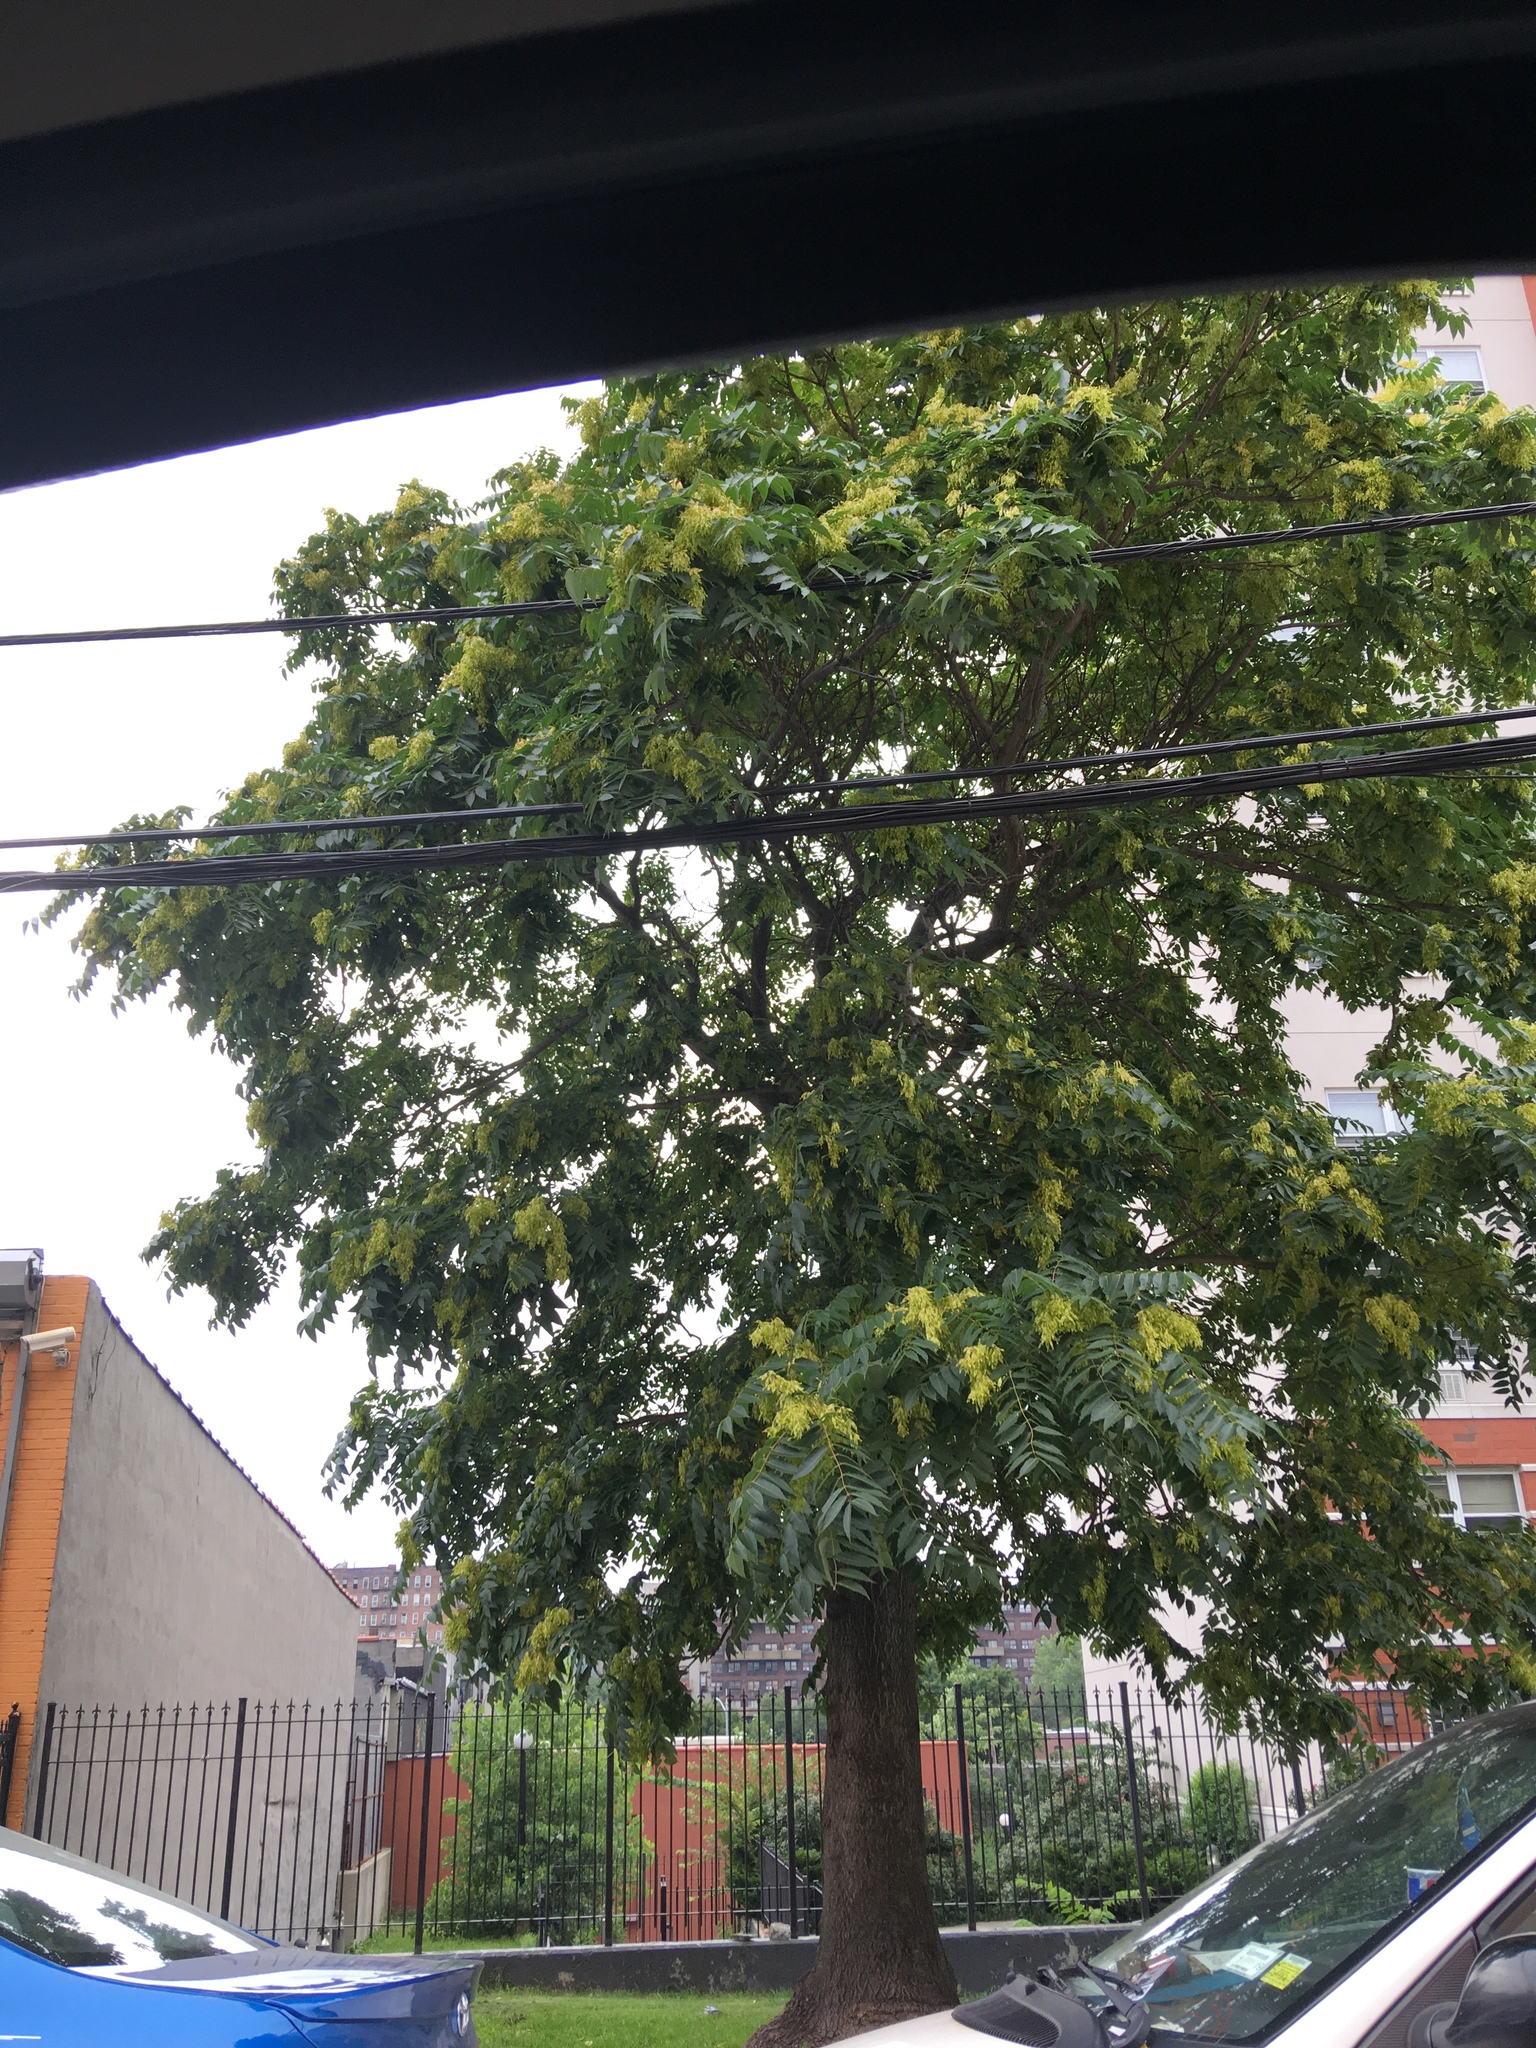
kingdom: Plantae
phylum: Tracheophyta
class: Magnoliopsida
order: Sapindales
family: Simaroubaceae
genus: Ailanthus
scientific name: Ailanthus altissima
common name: Tree-of-heaven
